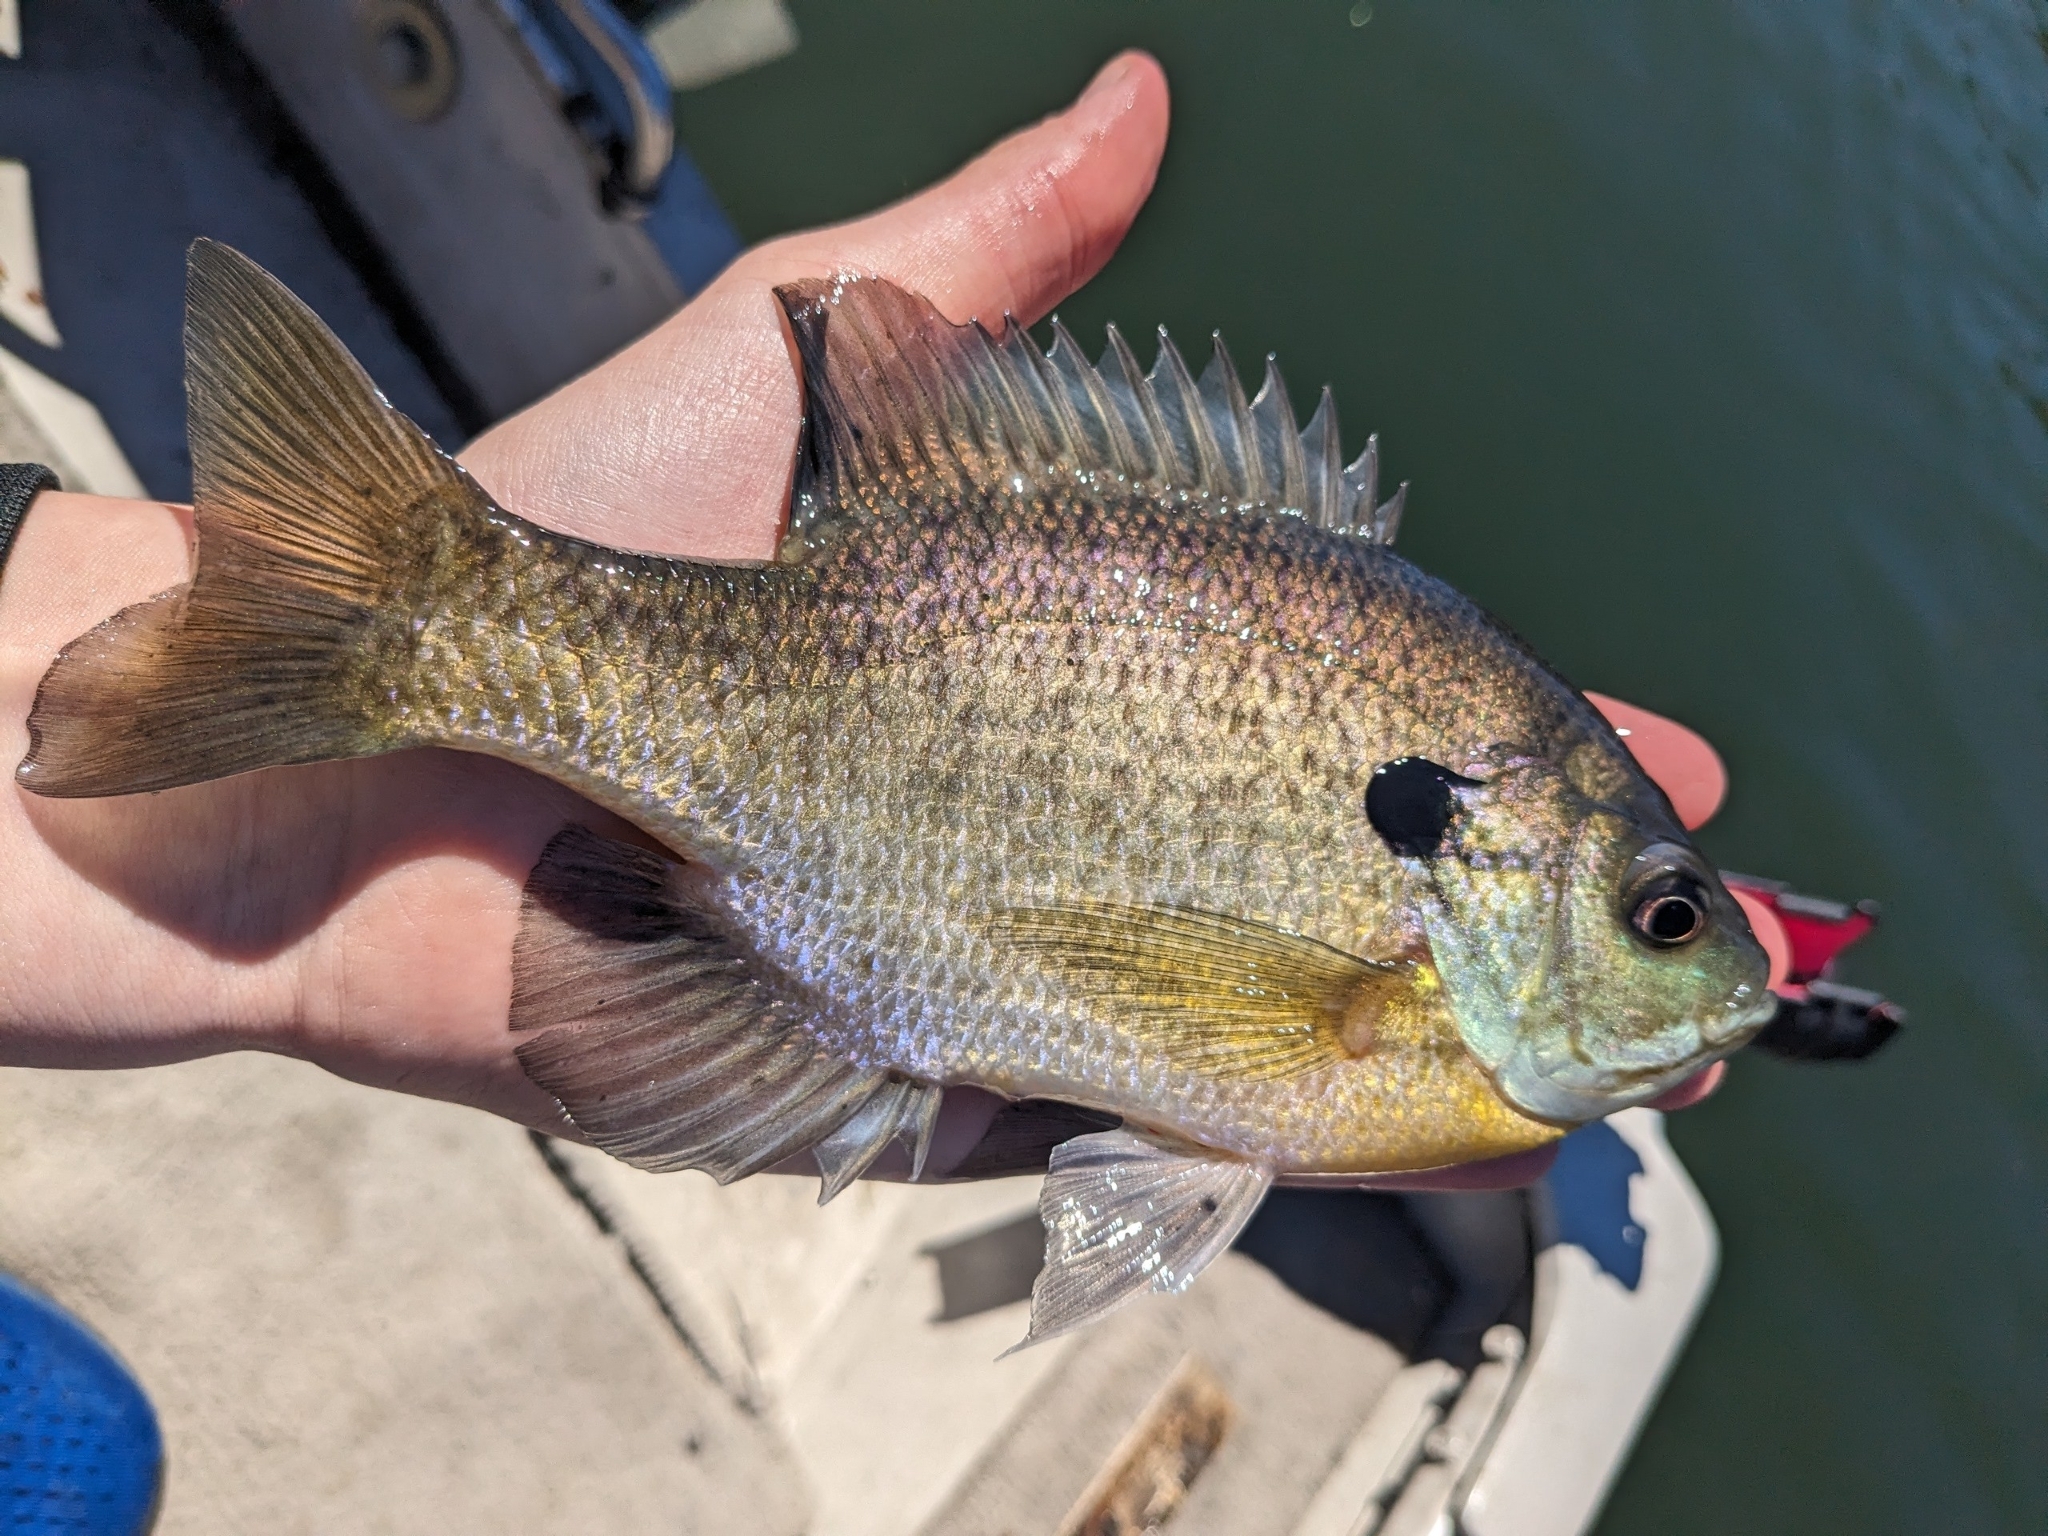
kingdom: Animalia
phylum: Chordata
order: Perciformes
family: Centrarchidae
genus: Lepomis
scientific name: Lepomis macrochirus
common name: Bluegill
